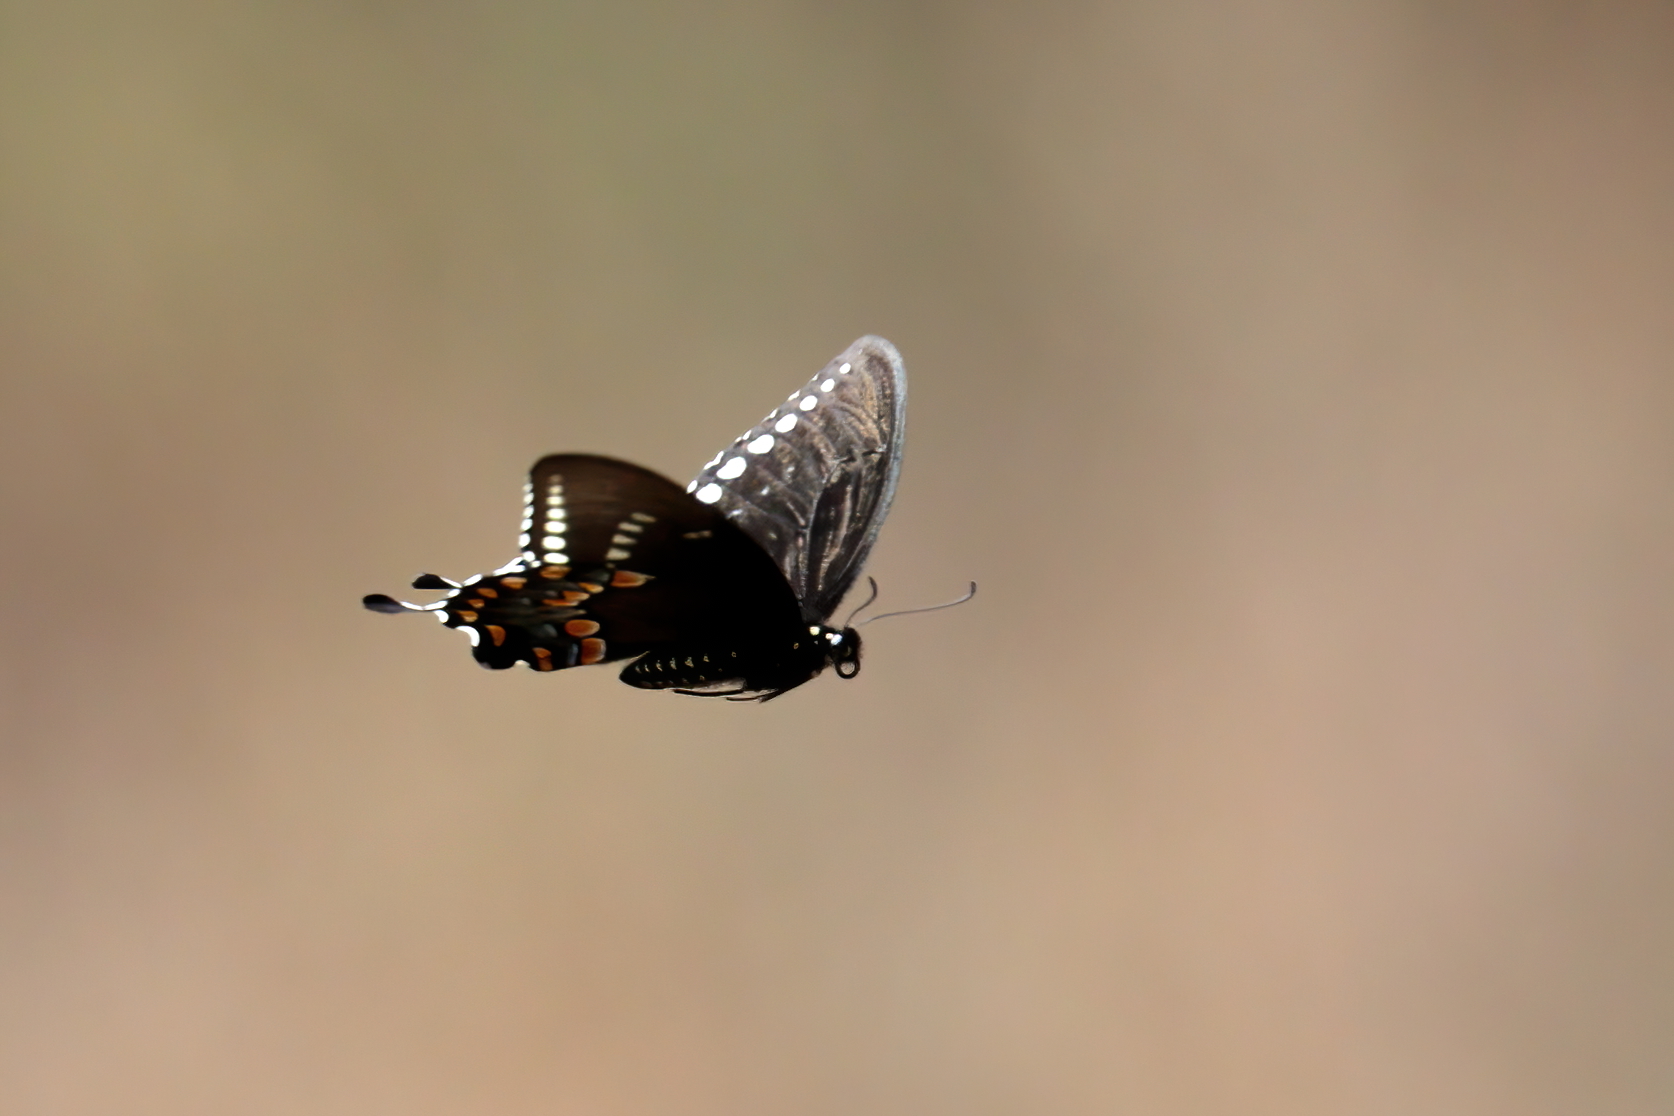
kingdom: Animalia
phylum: Arthropoda
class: Insecta
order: Lepidoptera
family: Papilionidae
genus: Papilio
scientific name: Papilio troilus
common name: Spicebush swallowtail
